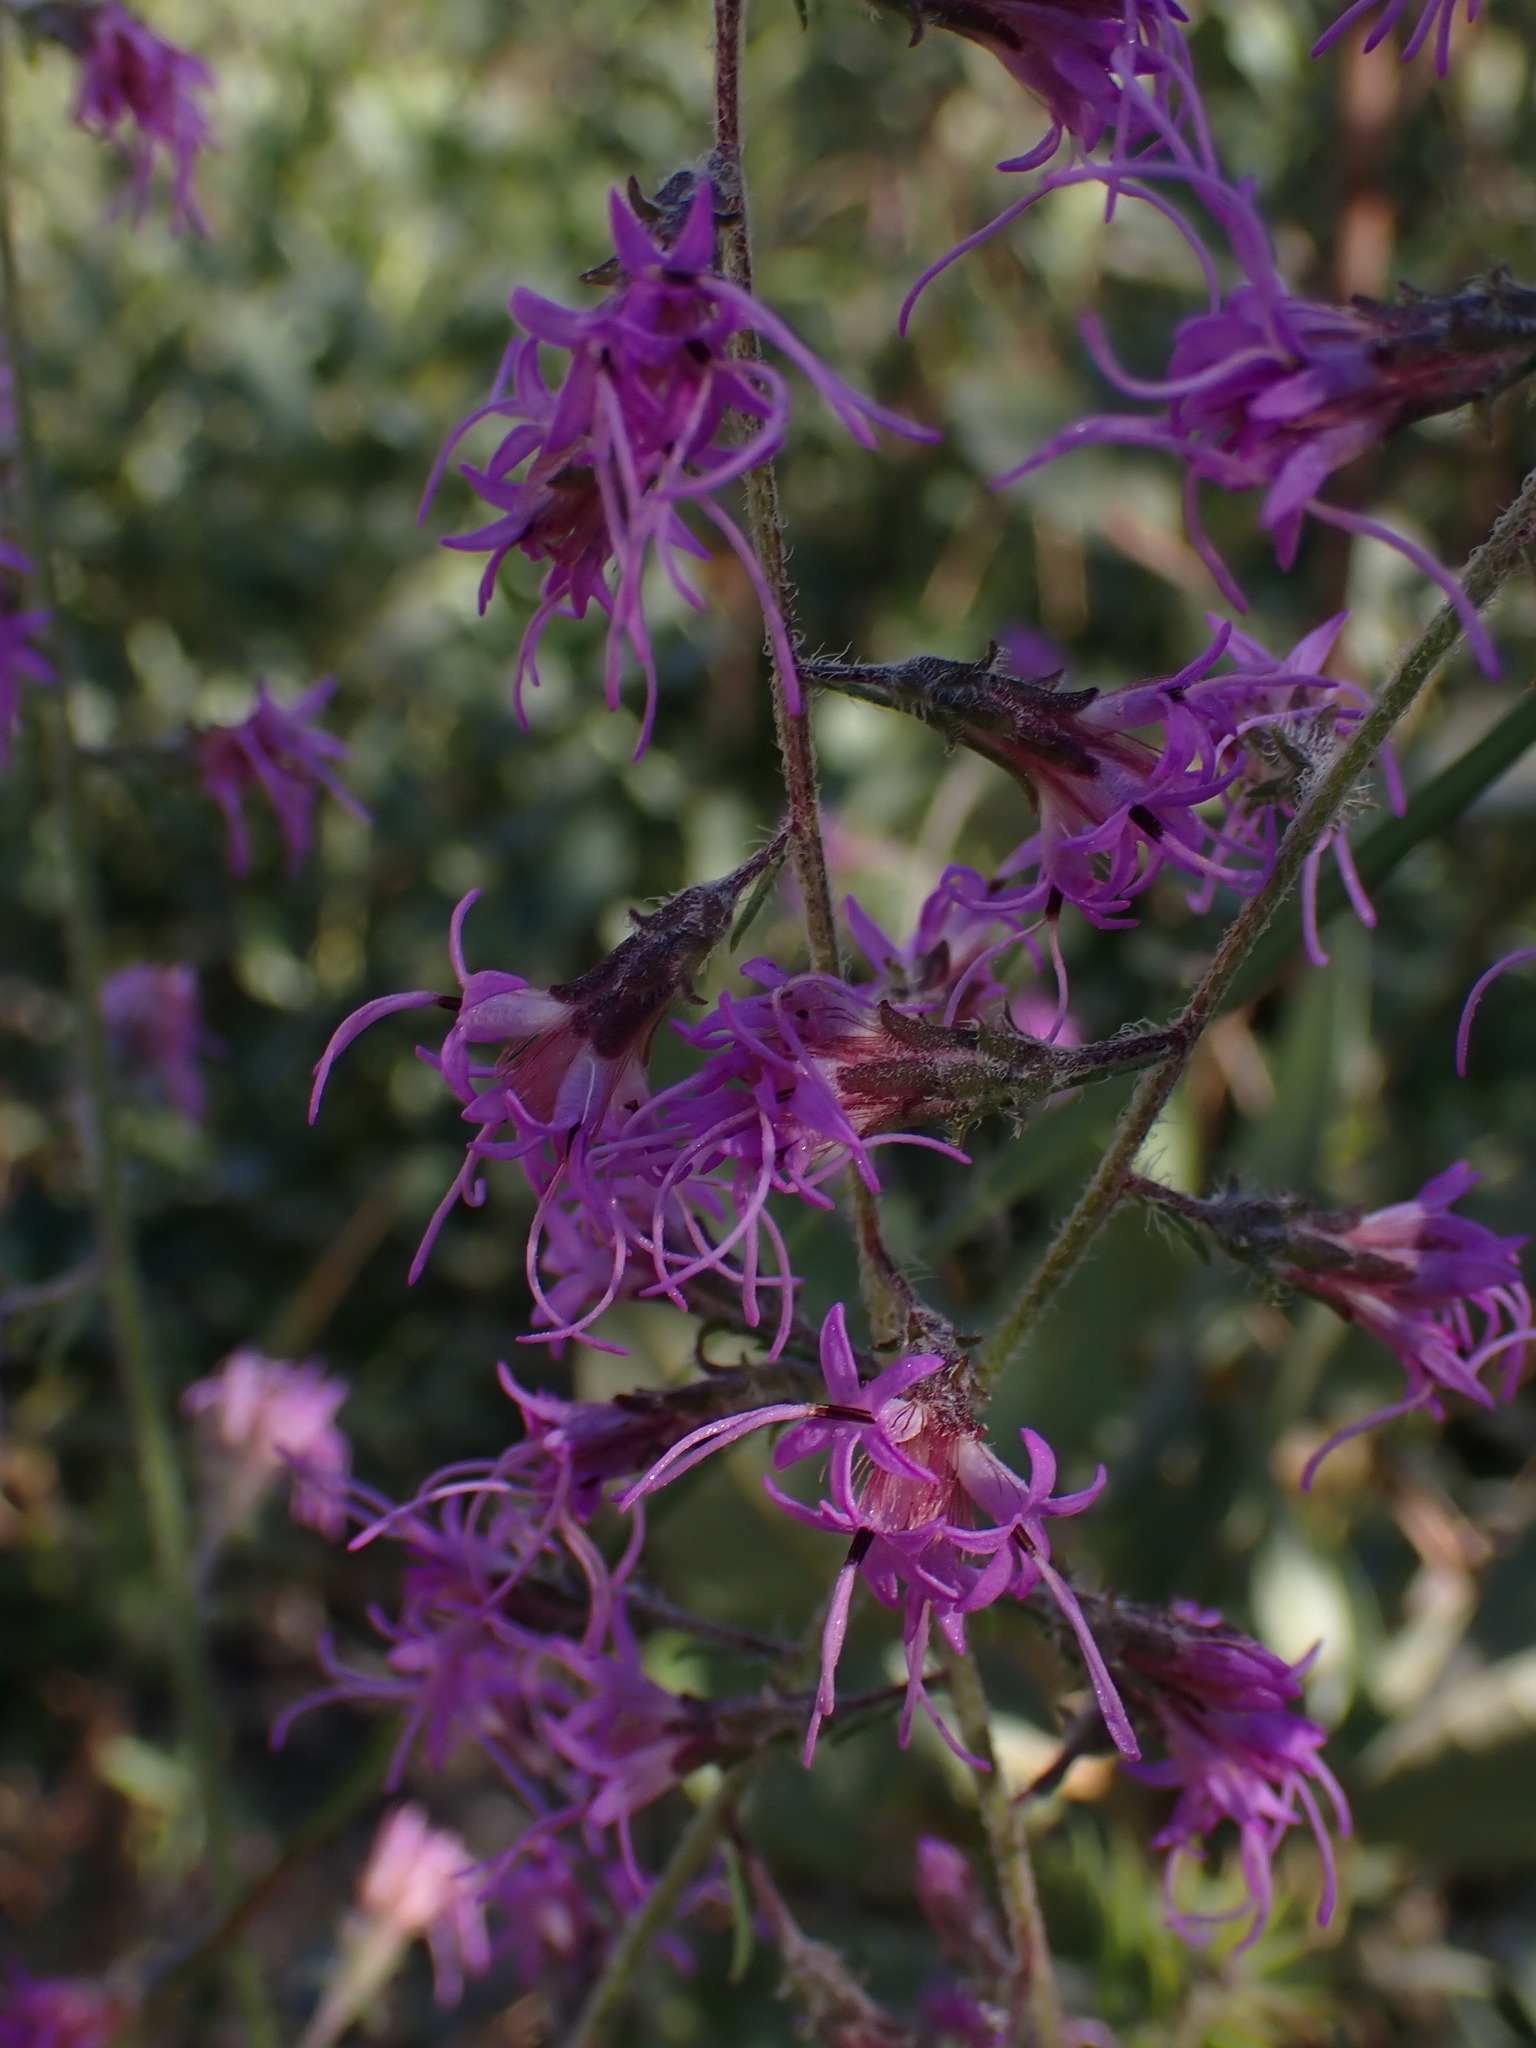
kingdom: Plantae
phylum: Tracheophyta
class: Magnoliopsida
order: Asterales
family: Asteraceae
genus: Liatris
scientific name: Liatris gracilis
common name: Slender gayfeather
